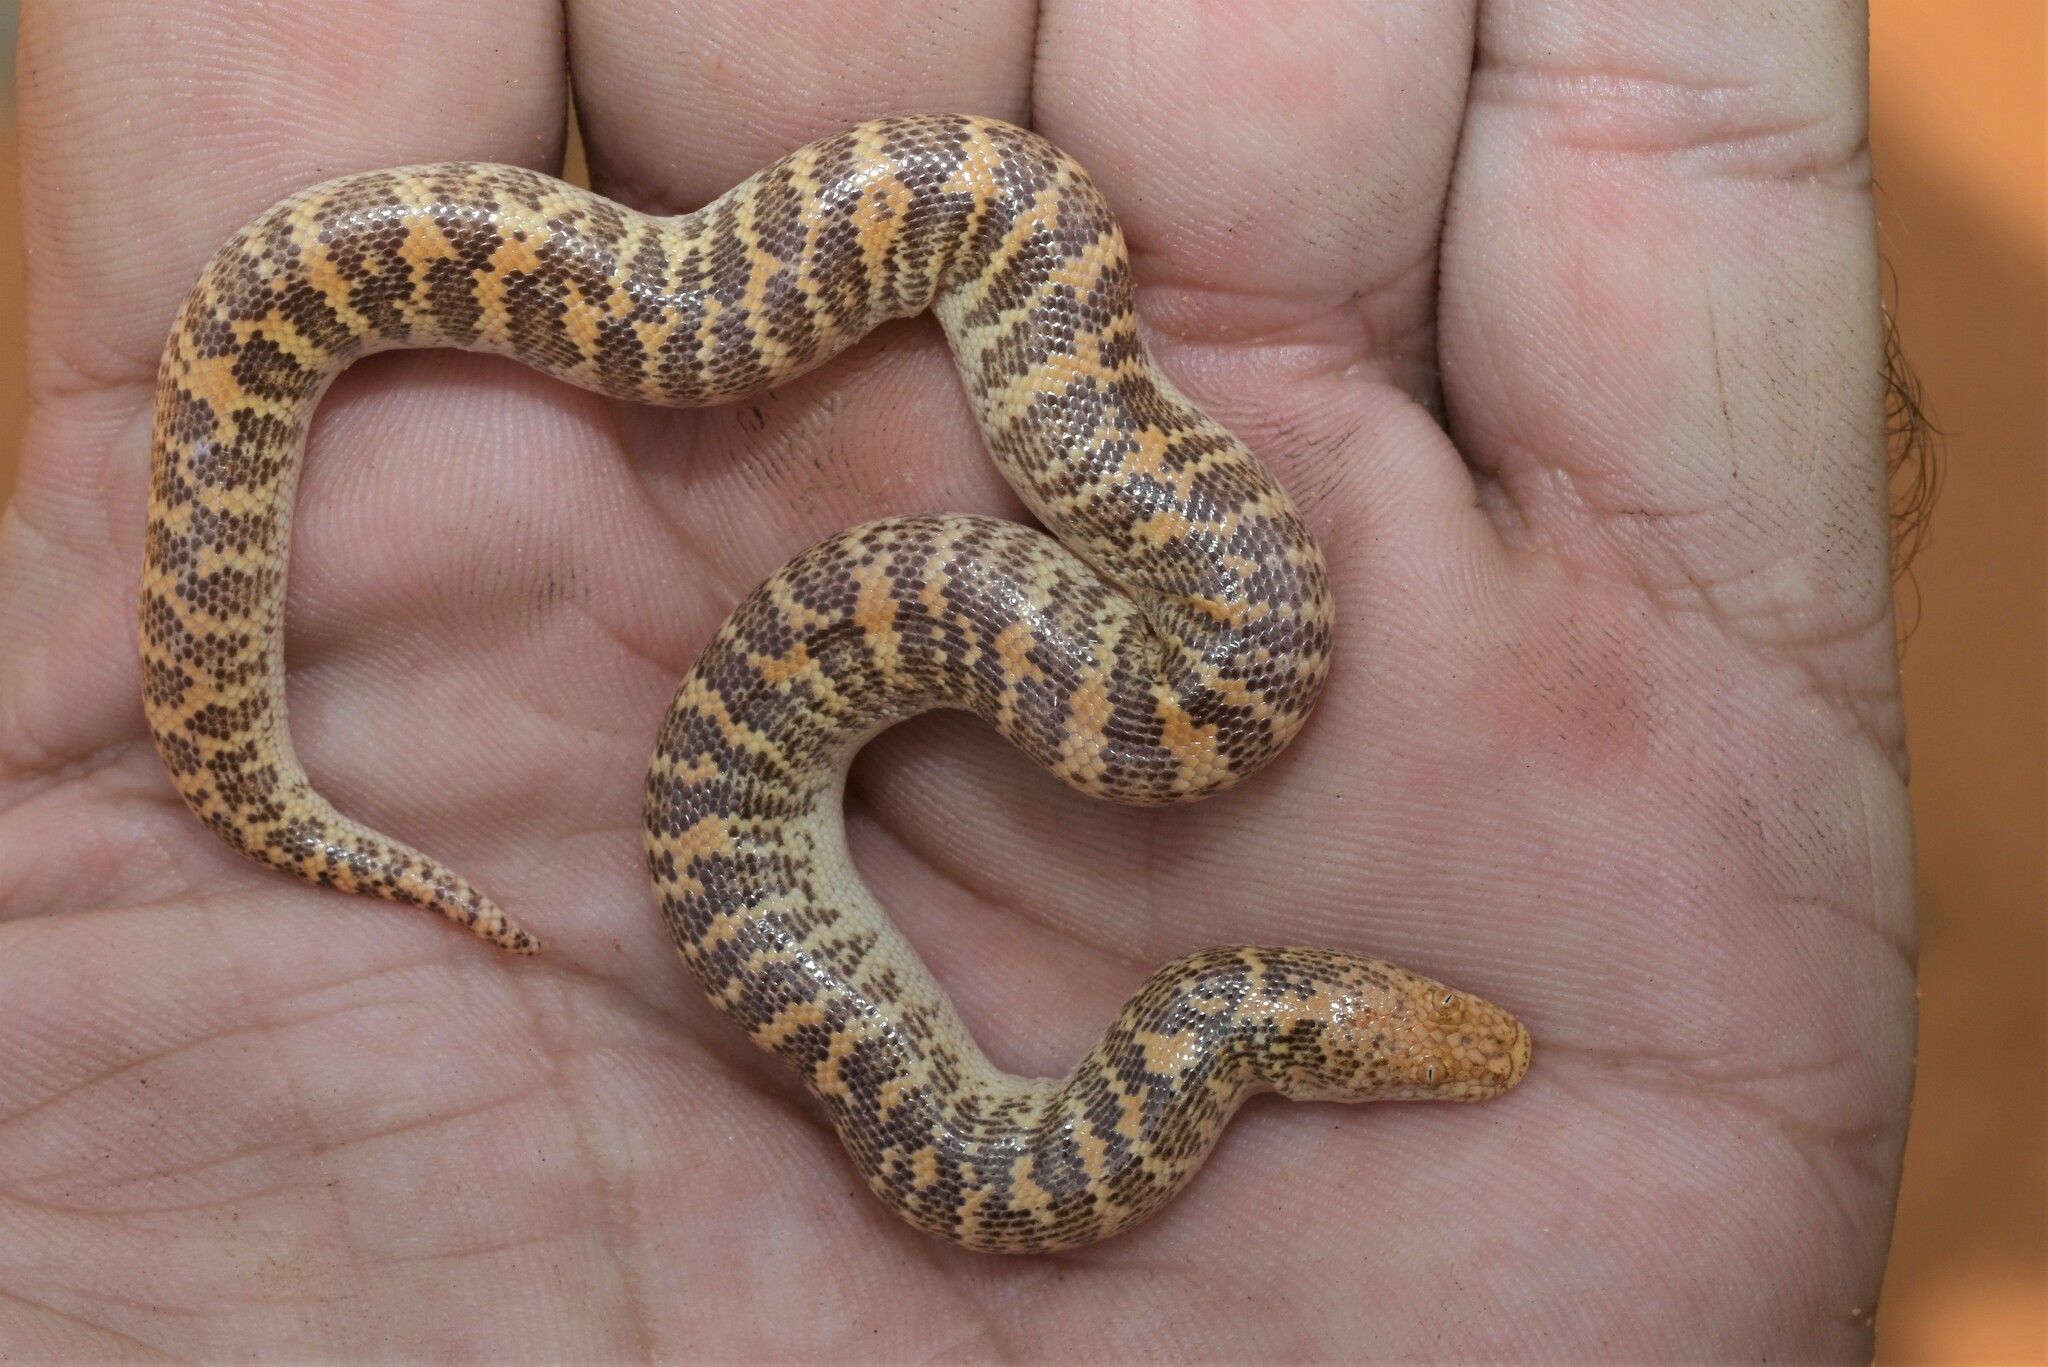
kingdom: Animalia
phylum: Chordata
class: Squamata
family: Boidae
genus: Eryx
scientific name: Eryx jayakari
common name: Arabian sand boa
